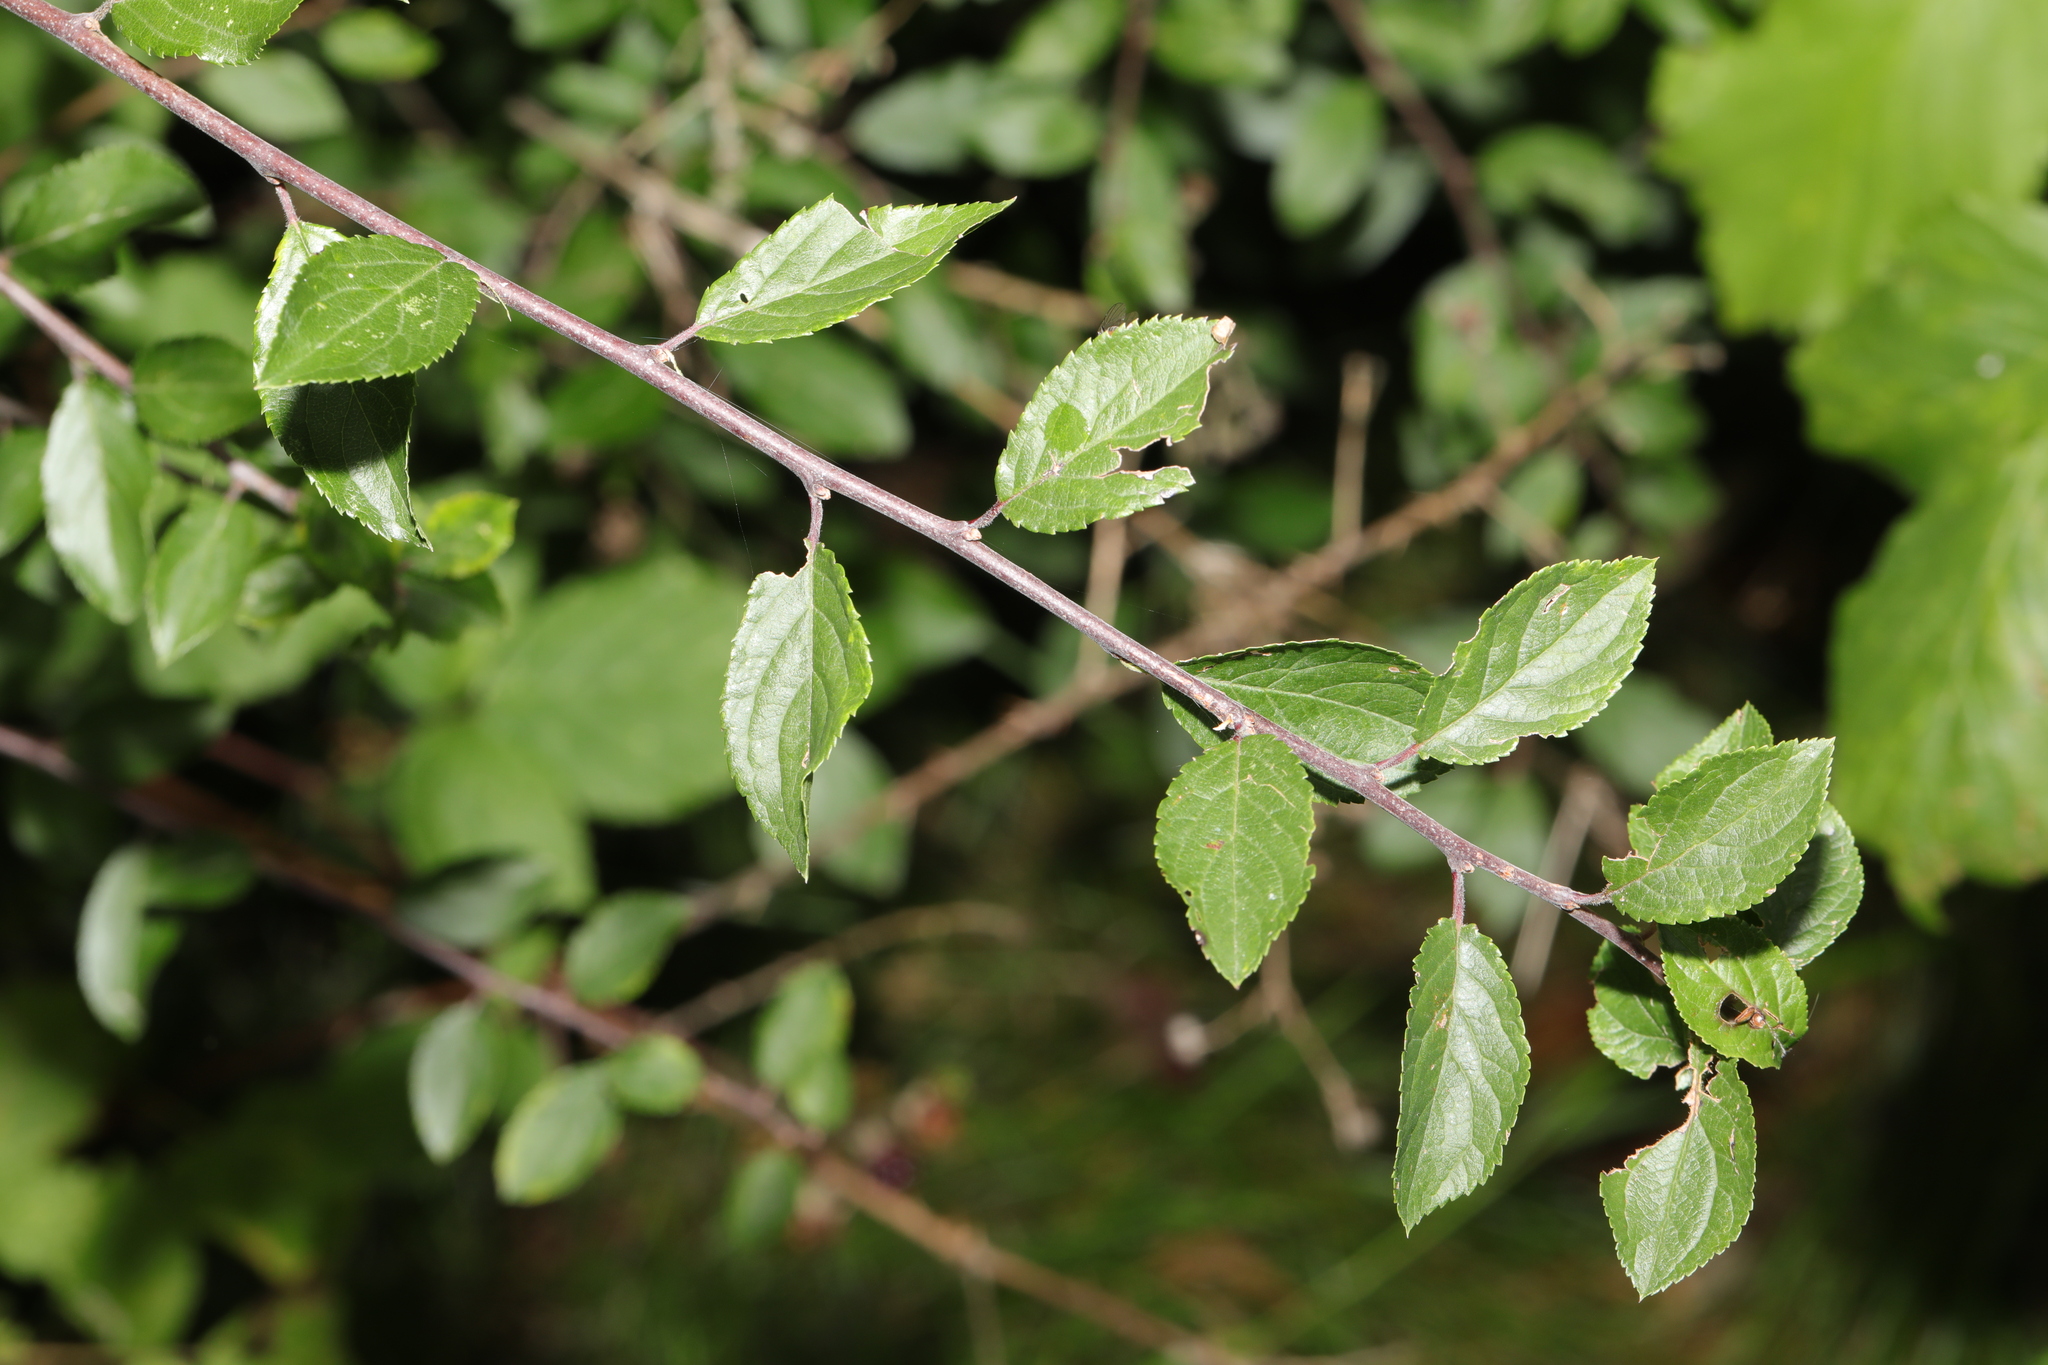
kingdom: Plantae
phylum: Tracheophyta
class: Magnoliopsida
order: Rosales
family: Rosaceae
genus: Prunus
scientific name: Prunus spinosa
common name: Blackthorn
